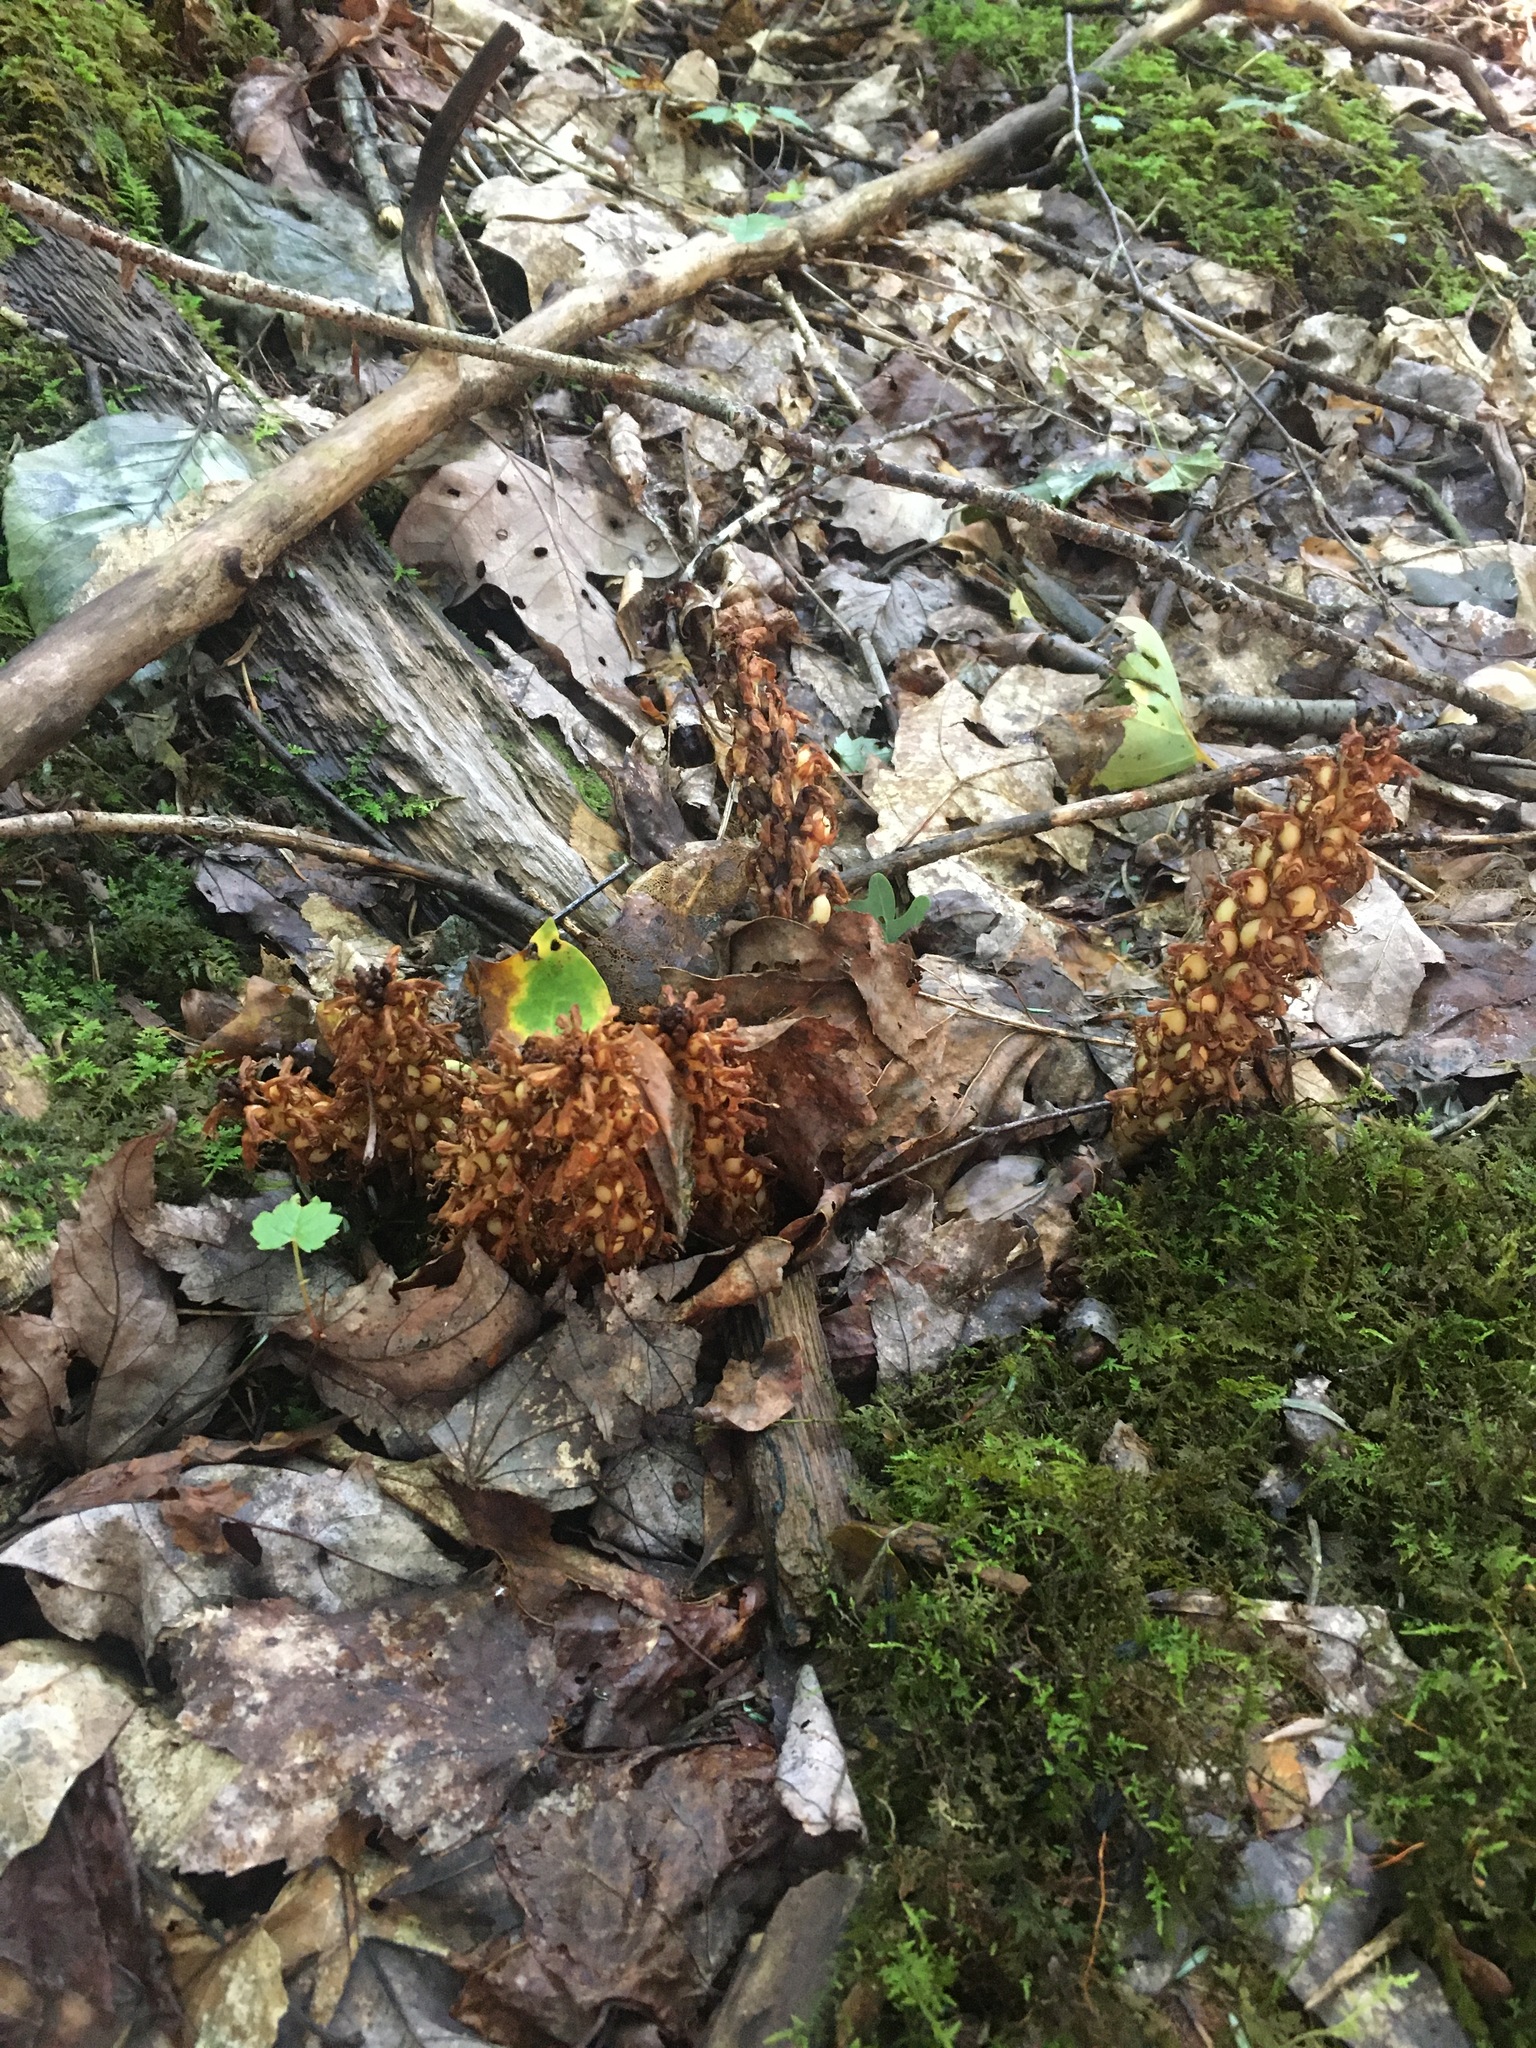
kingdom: Plantae
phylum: Tracheophyta
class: Magnoliopsida
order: Lamiales
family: Orobanchaceae
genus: Conopholis
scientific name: Conopholis americana
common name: American cancer-root
